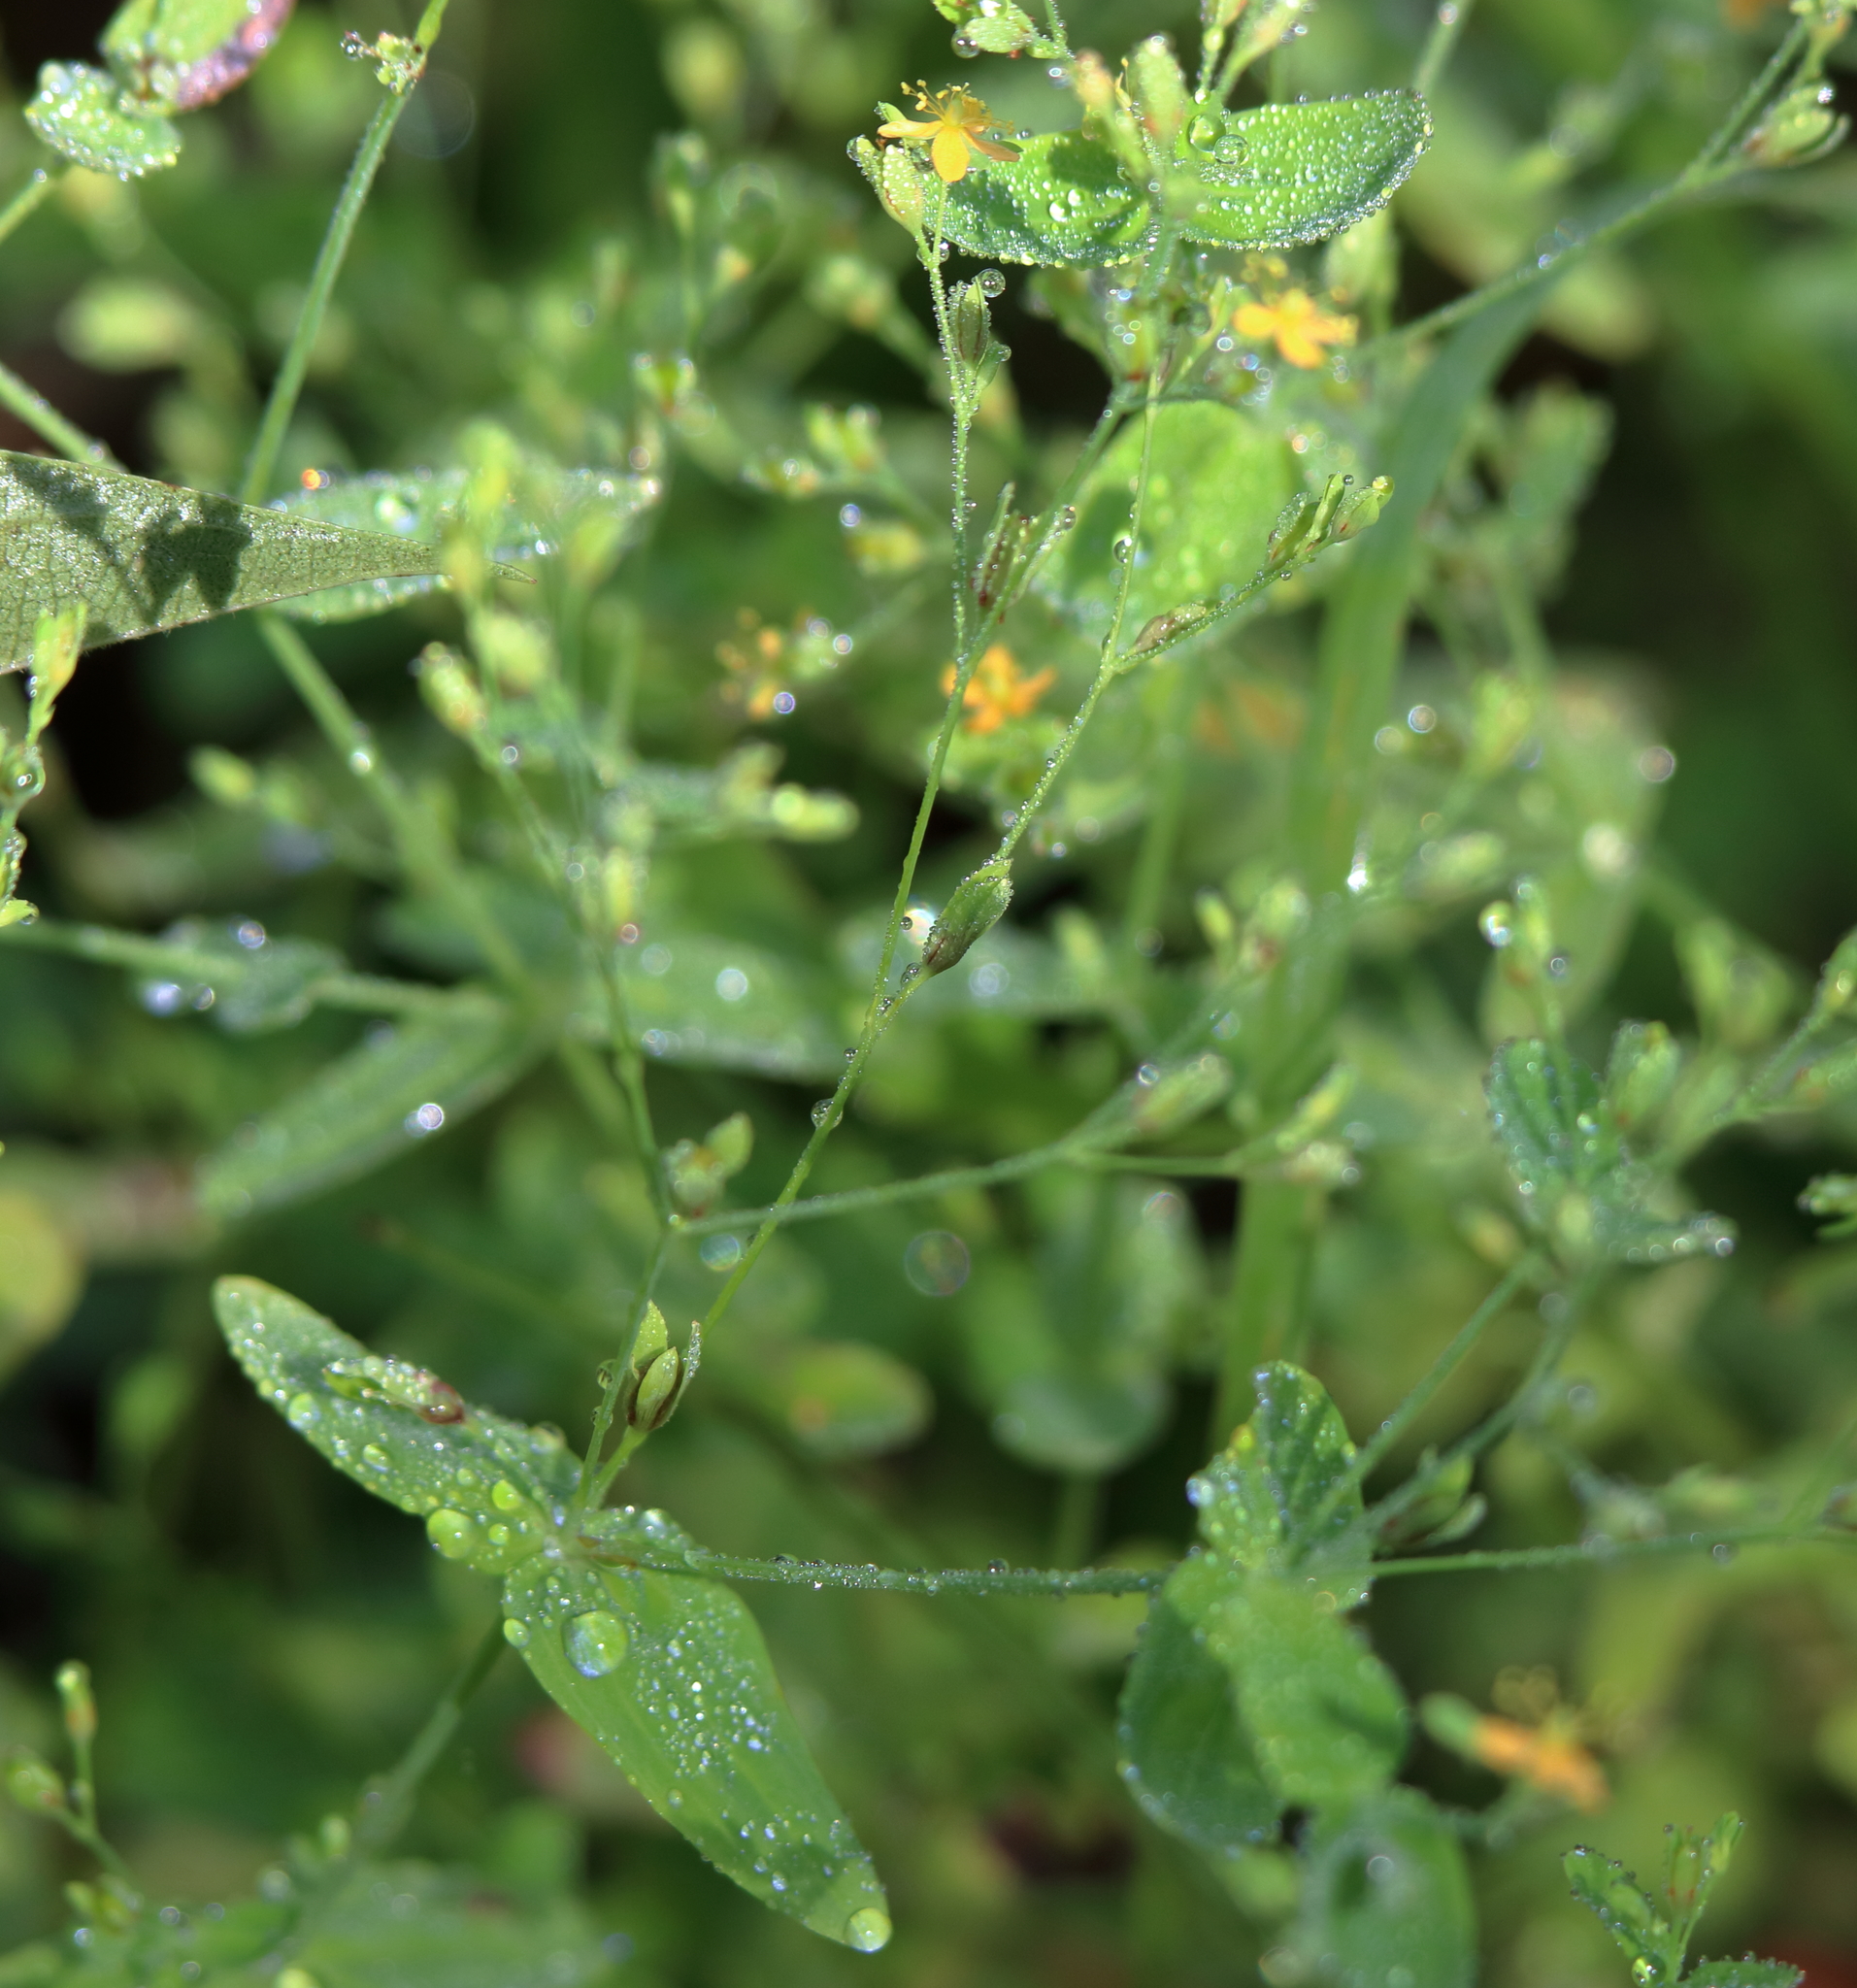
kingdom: Plantae
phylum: Tracheophyta
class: Magnoliopsida
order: Malpighiales
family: Hypericaceae
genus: Hypericum
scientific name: Hypericum mutilum
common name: Dwarf st. john's-wort
